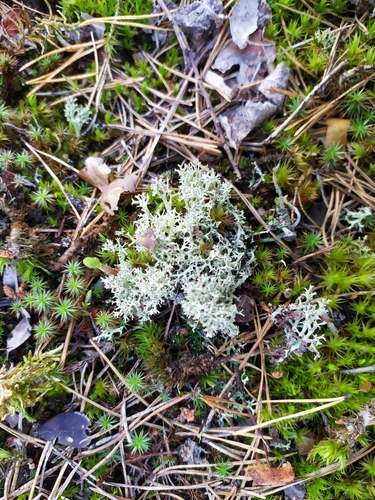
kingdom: Fungi
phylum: Ascomycota
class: Lecanoromycetes
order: Lecanorales
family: Cladoniaceae
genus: Cladonia
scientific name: Cladonia portentosa
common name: Reindeer lichen
